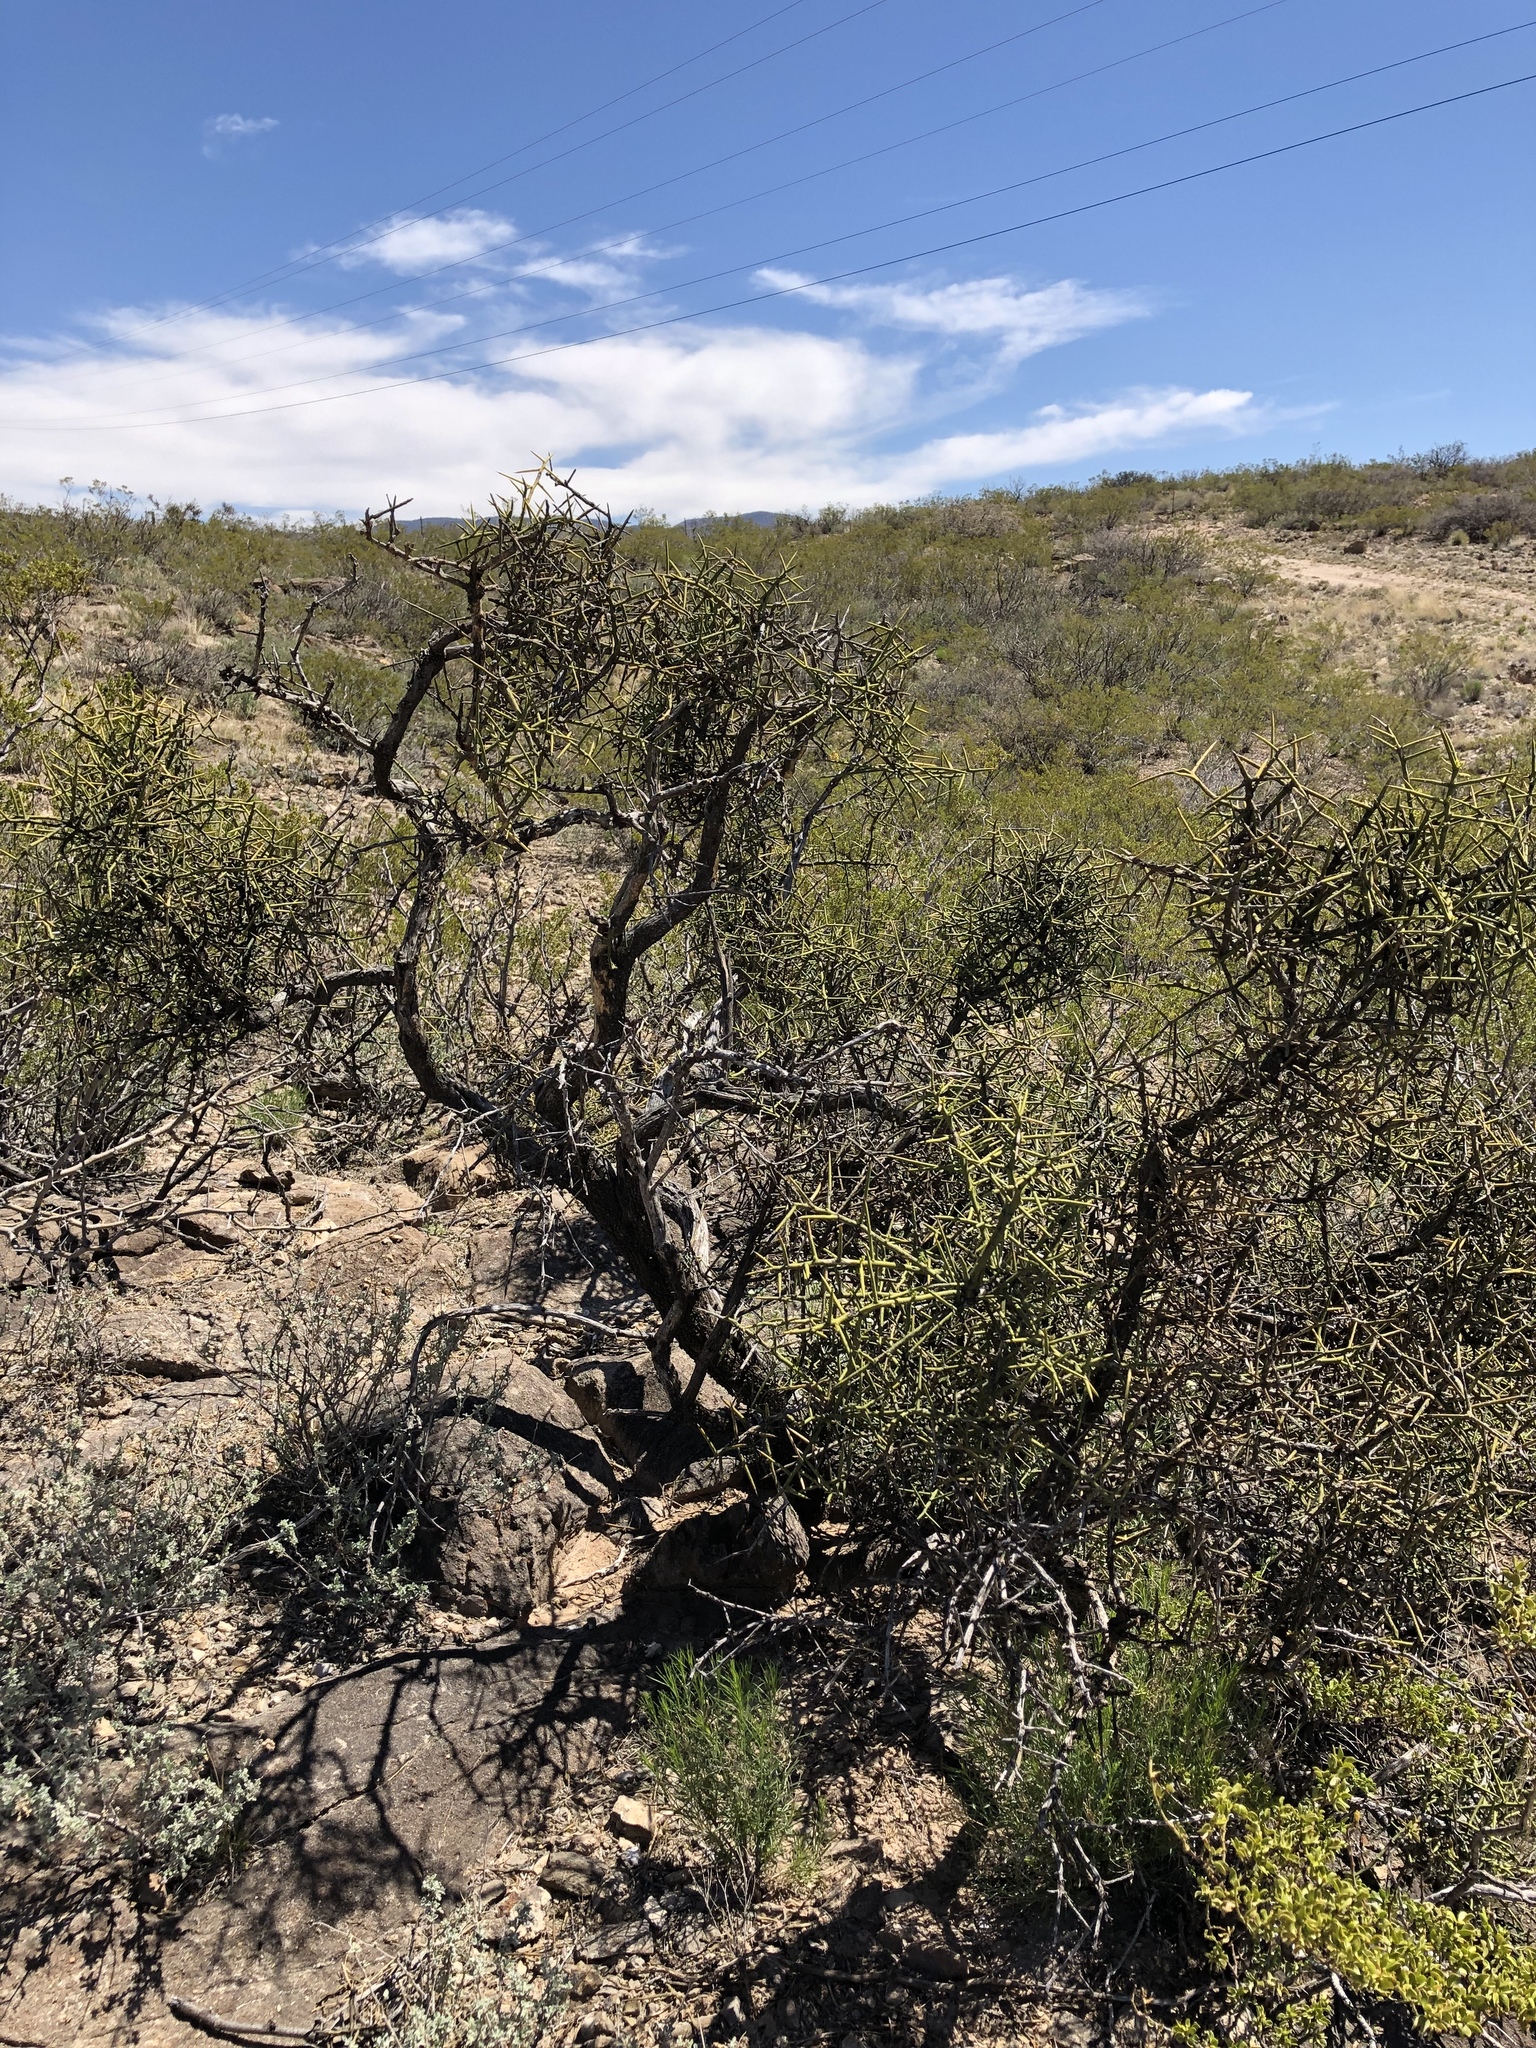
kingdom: Plantae
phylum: Tracheophyta
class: Magnoliopsida
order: Brassicales
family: Koeberliniaceae
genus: Koeberlinia
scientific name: Koeberlinia spinosa
